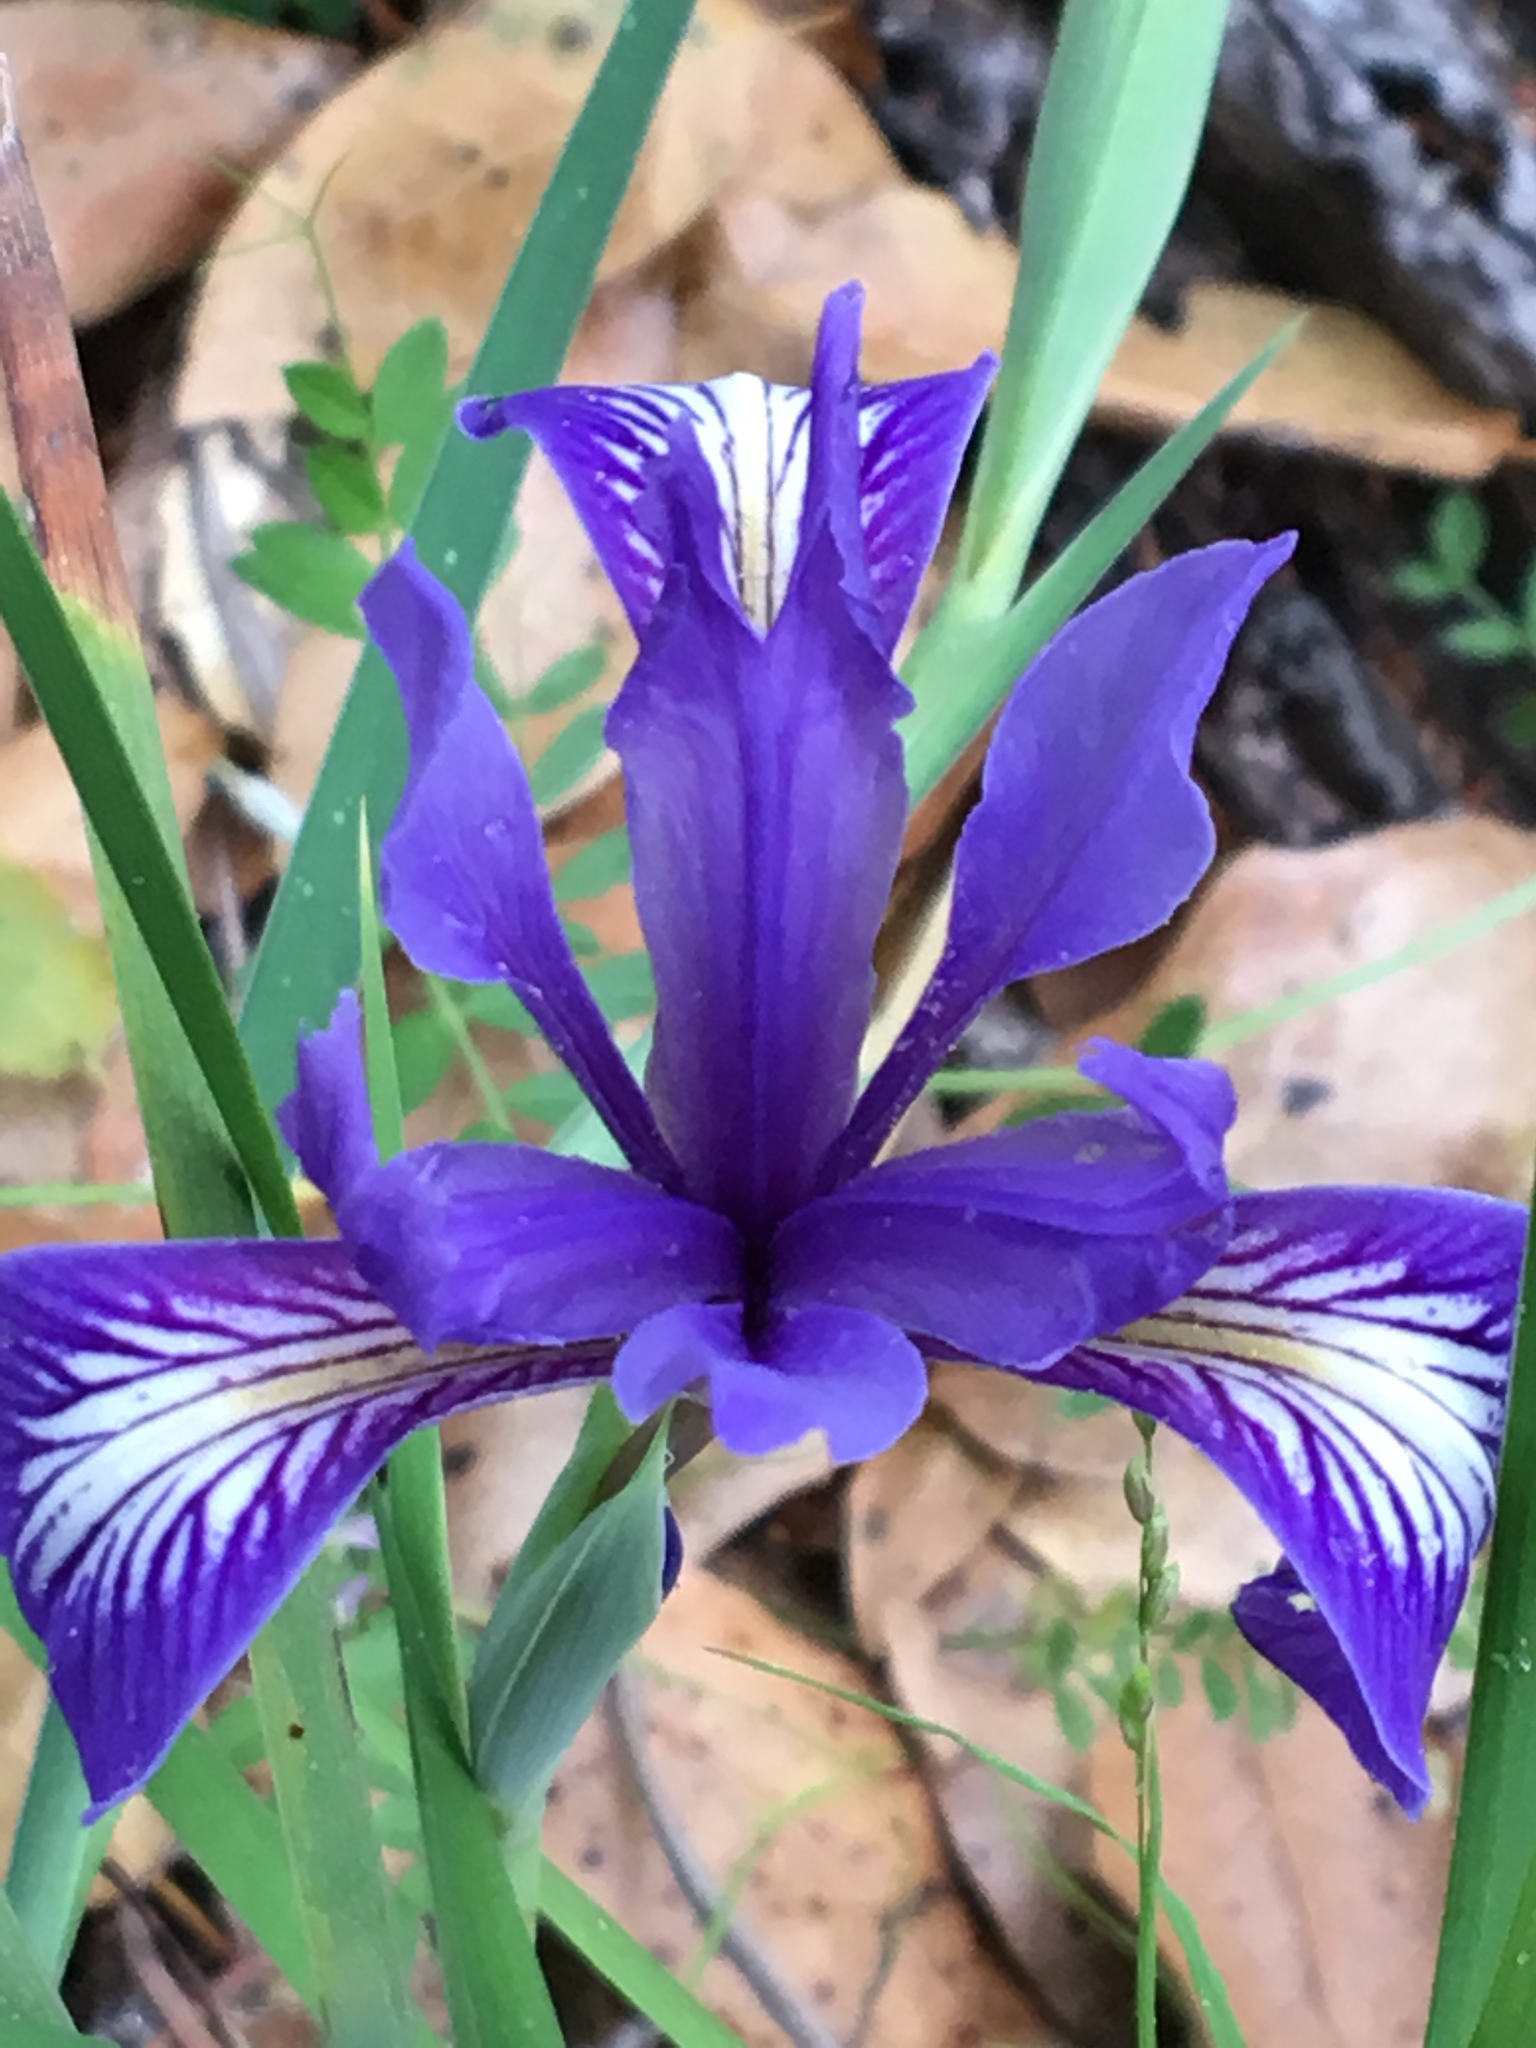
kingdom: Plantae
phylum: Tracheophyta
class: Liliopsida
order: Asparagales
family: Iridaceae
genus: Iris
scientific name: Iris macrosiphon
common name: Ground iris
